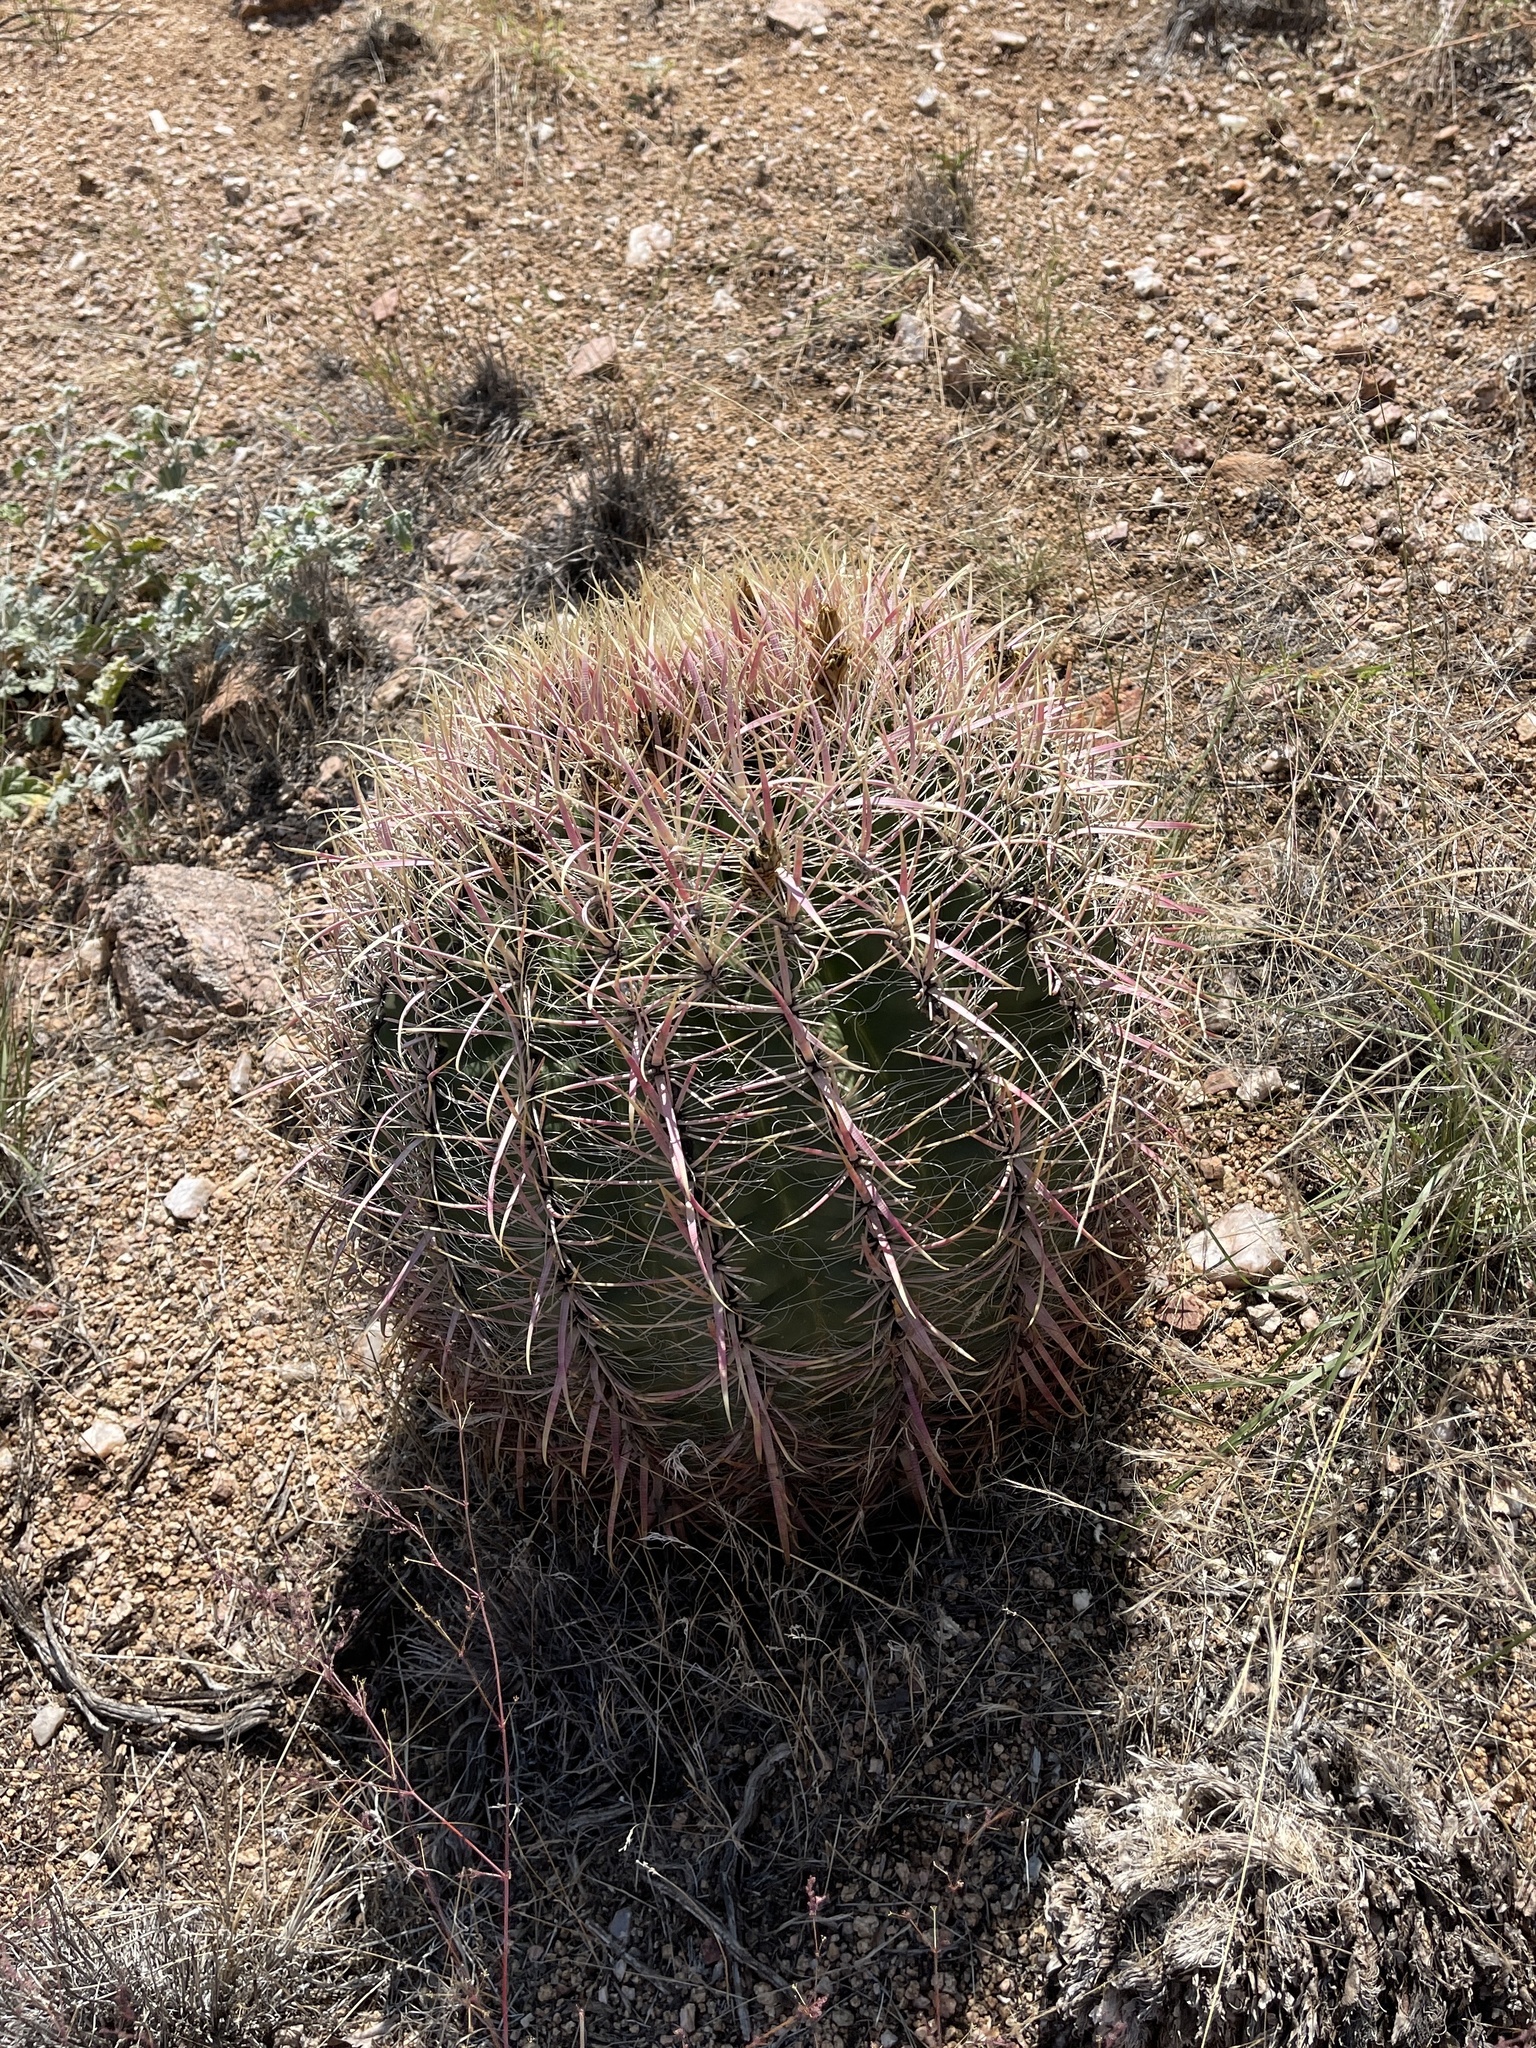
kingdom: Plantae
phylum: Tracheophyta
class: Magnoliopsida
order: Caryophyllales
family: Cactaceae
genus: Ferocactus
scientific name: Ferocactus cylindraceus
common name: California barrel cactus
